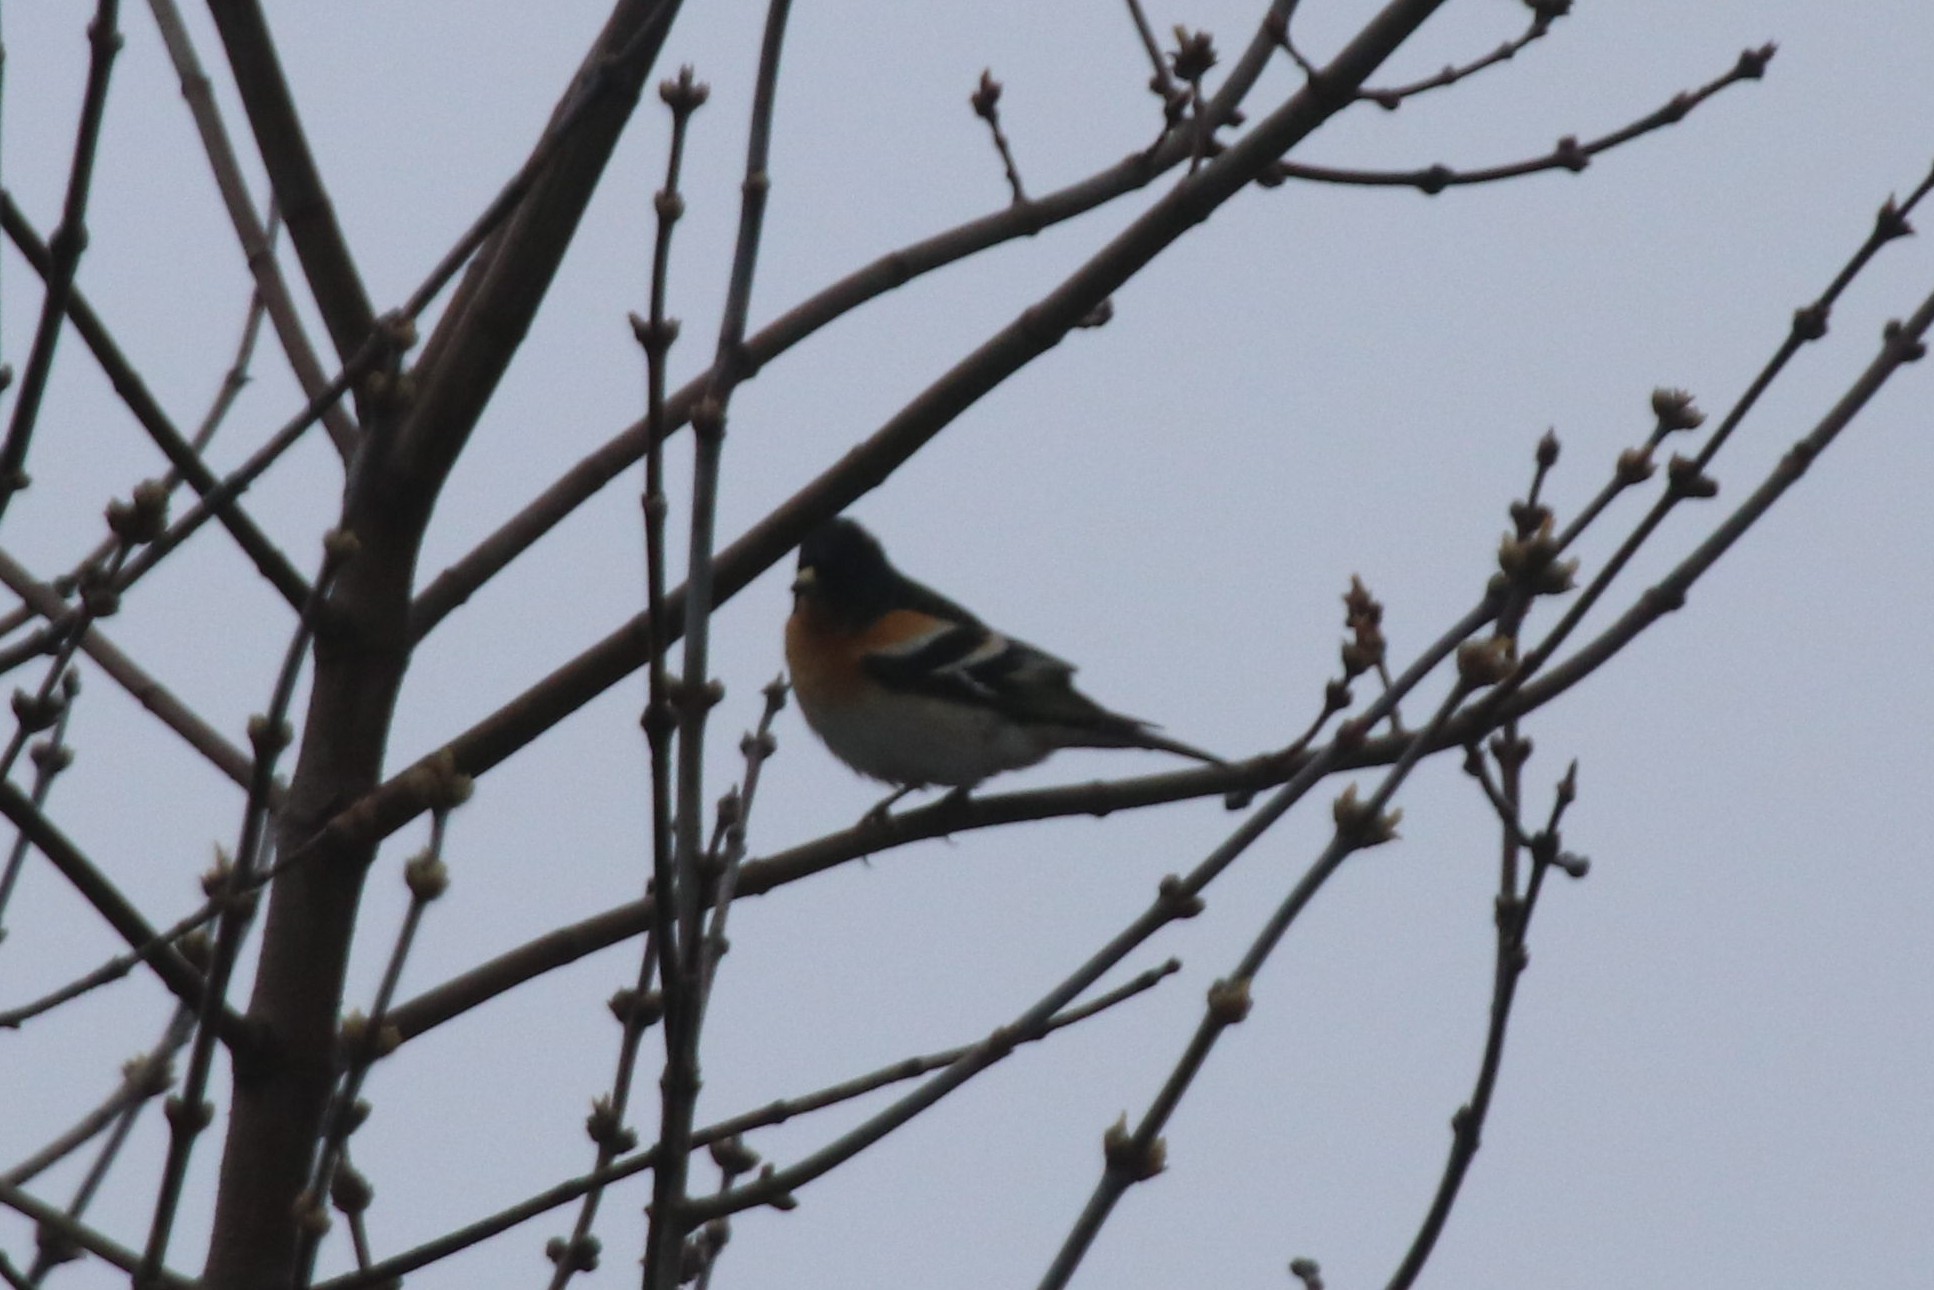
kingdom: Animalia
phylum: Chordata
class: Aves
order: Passeriformes
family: Fringillidae
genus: Fringilla
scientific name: Fringilla montifringilla
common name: Brambling
